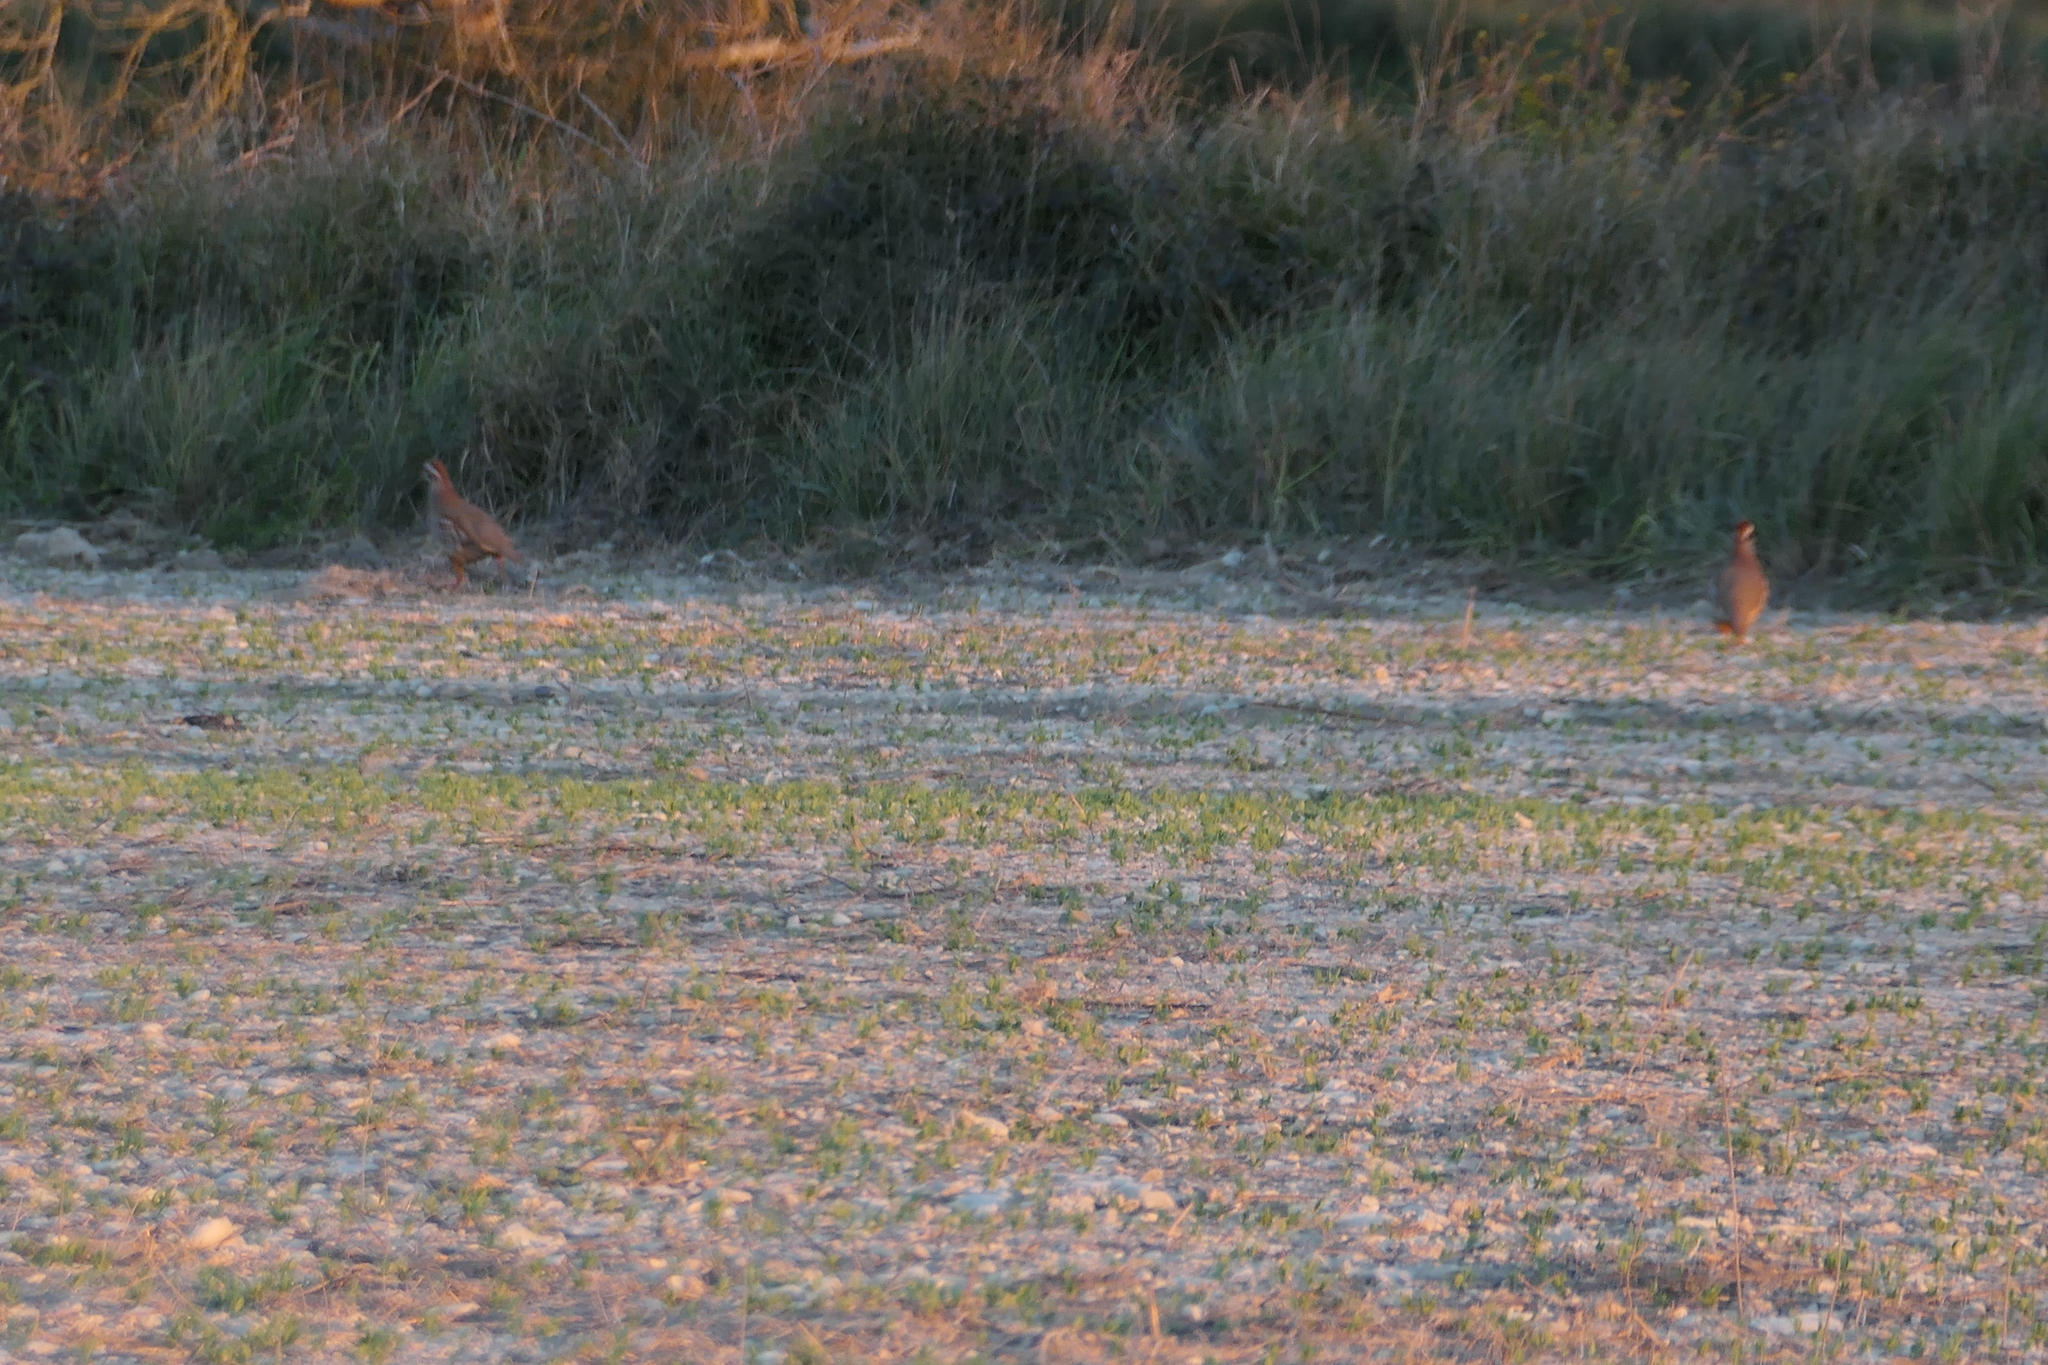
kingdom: Animalia
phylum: Chordata
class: Aves
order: Galliformes
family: Phasianidae
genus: Alectoris
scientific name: Alectoris rufa
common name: Red-legged partridge
